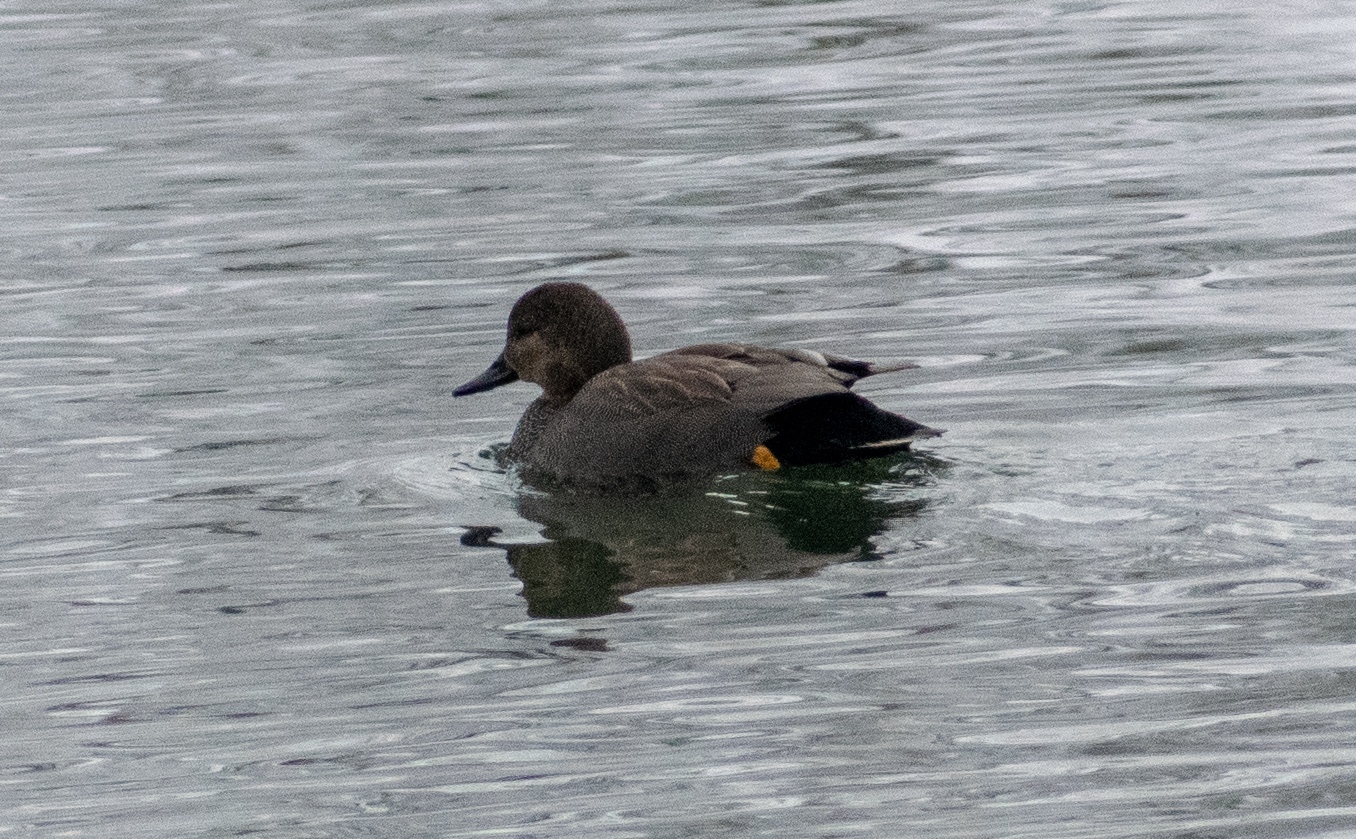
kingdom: Animalia
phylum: Chordata
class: Aves
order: Anseriformes
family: Anatidae
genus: Mareca
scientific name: Mareca strepera
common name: Gadwall
